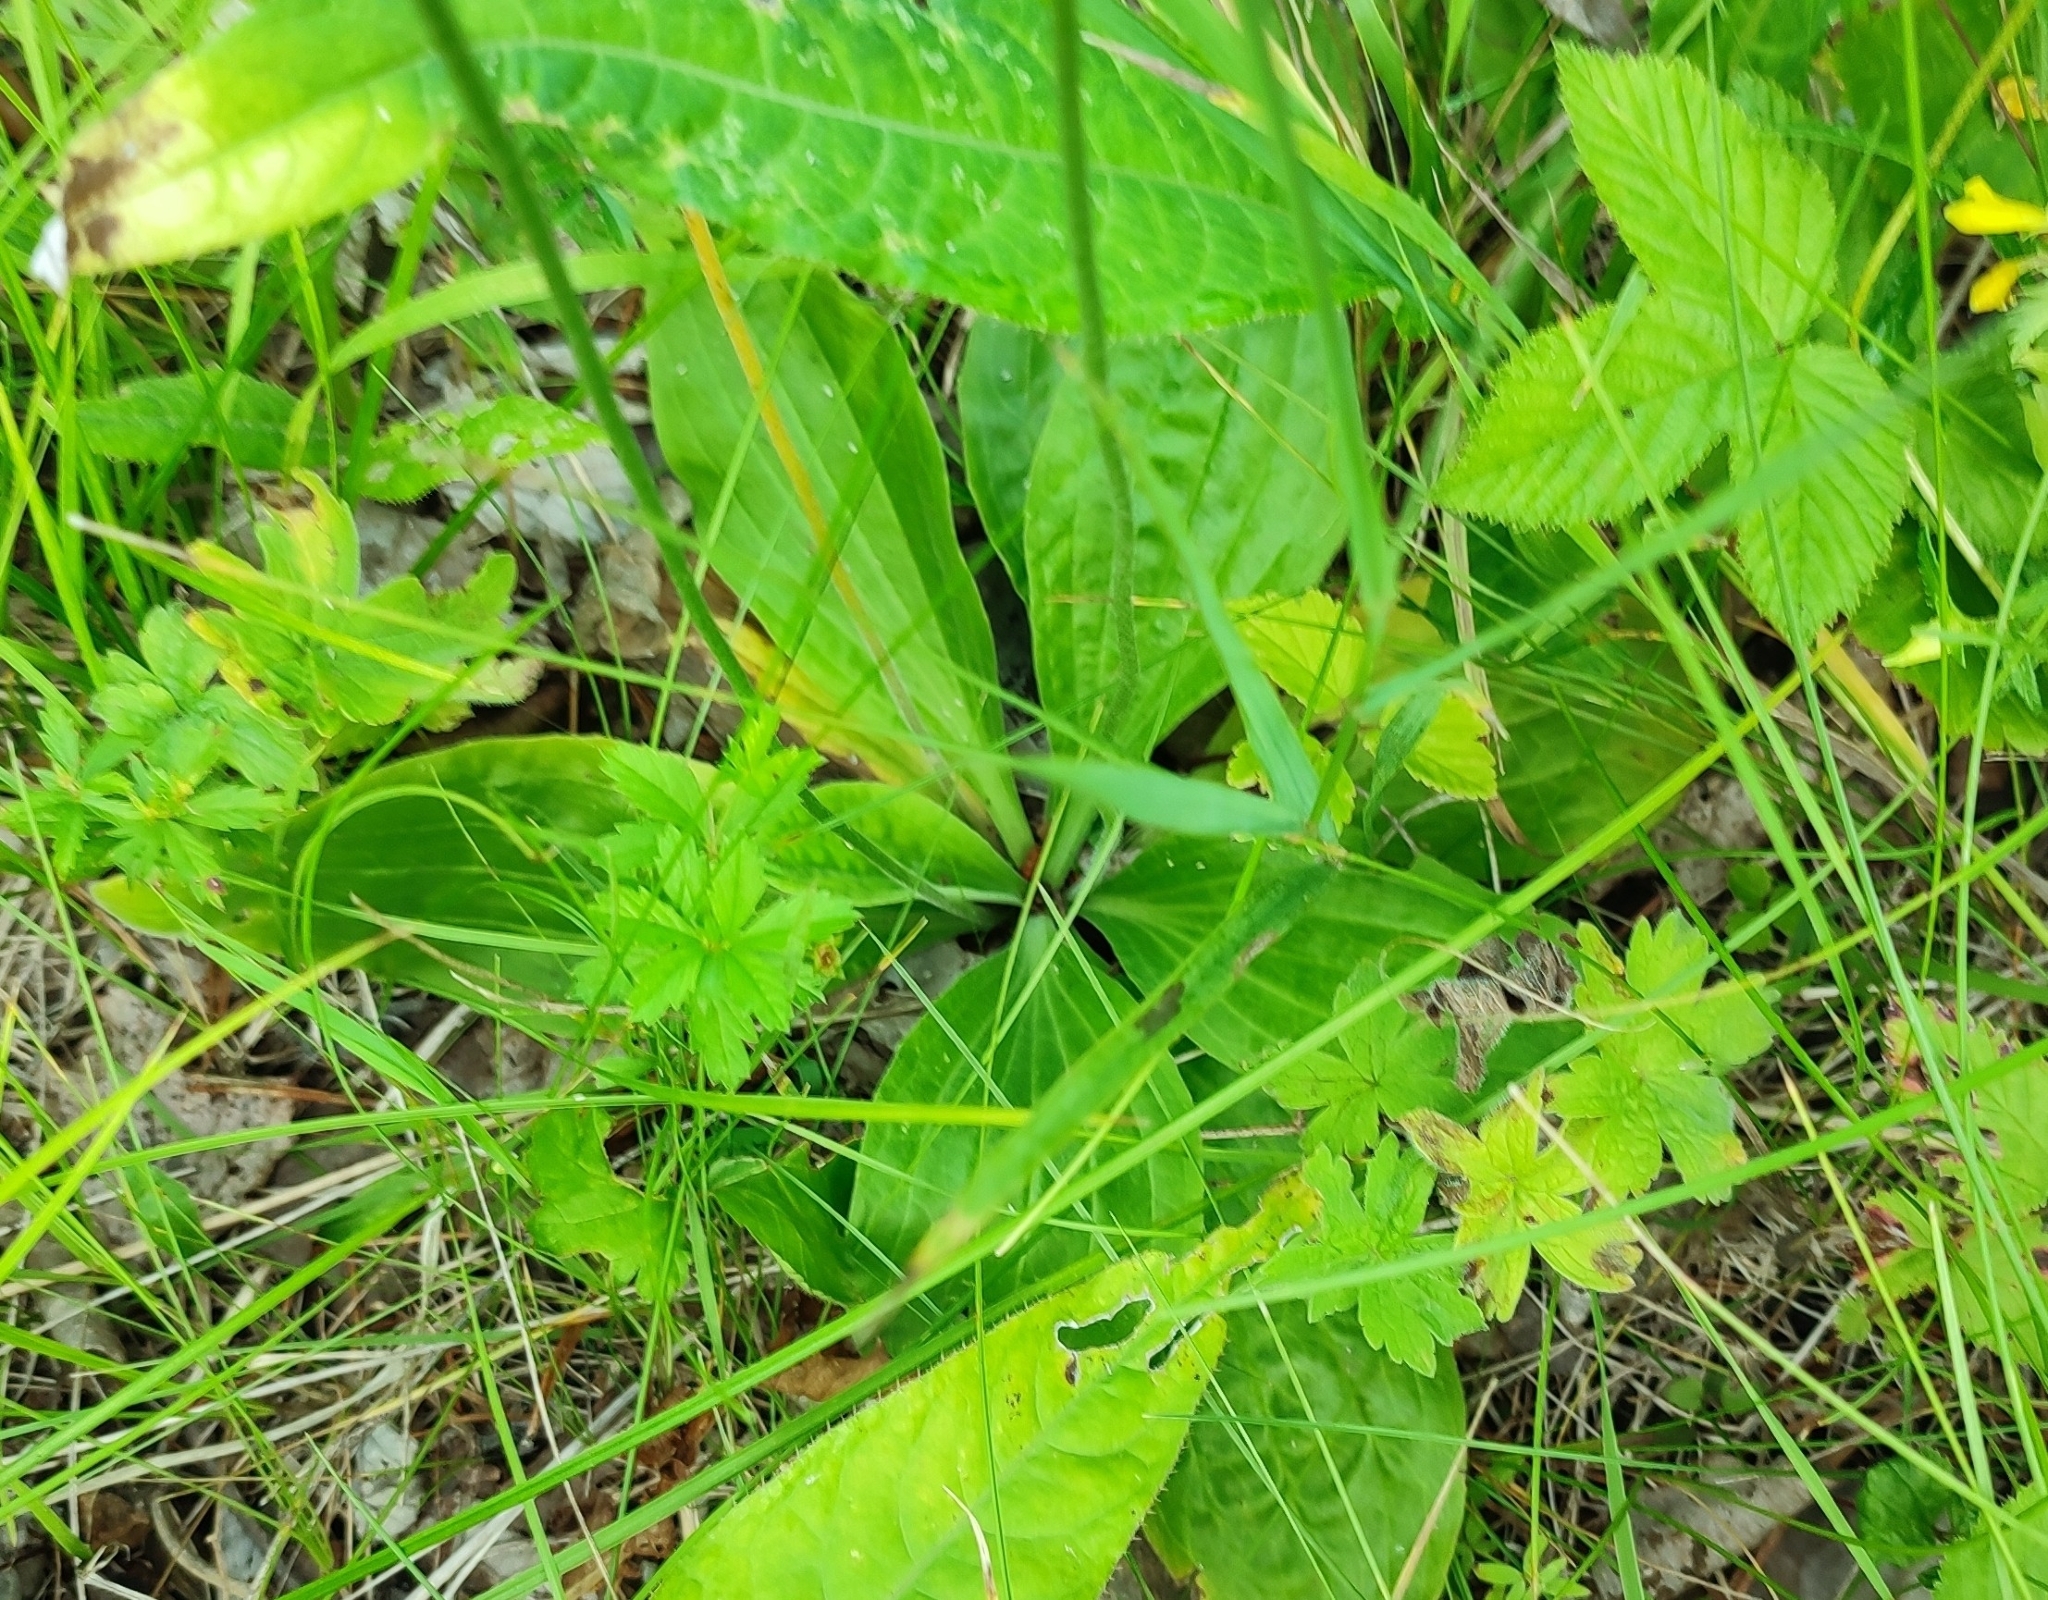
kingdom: Plantae
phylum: Tracheophyta
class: Magnoliopsida
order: Lamiales
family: Plantaginaceae
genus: Plantago
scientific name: Plantago media
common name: Hoary plantain
